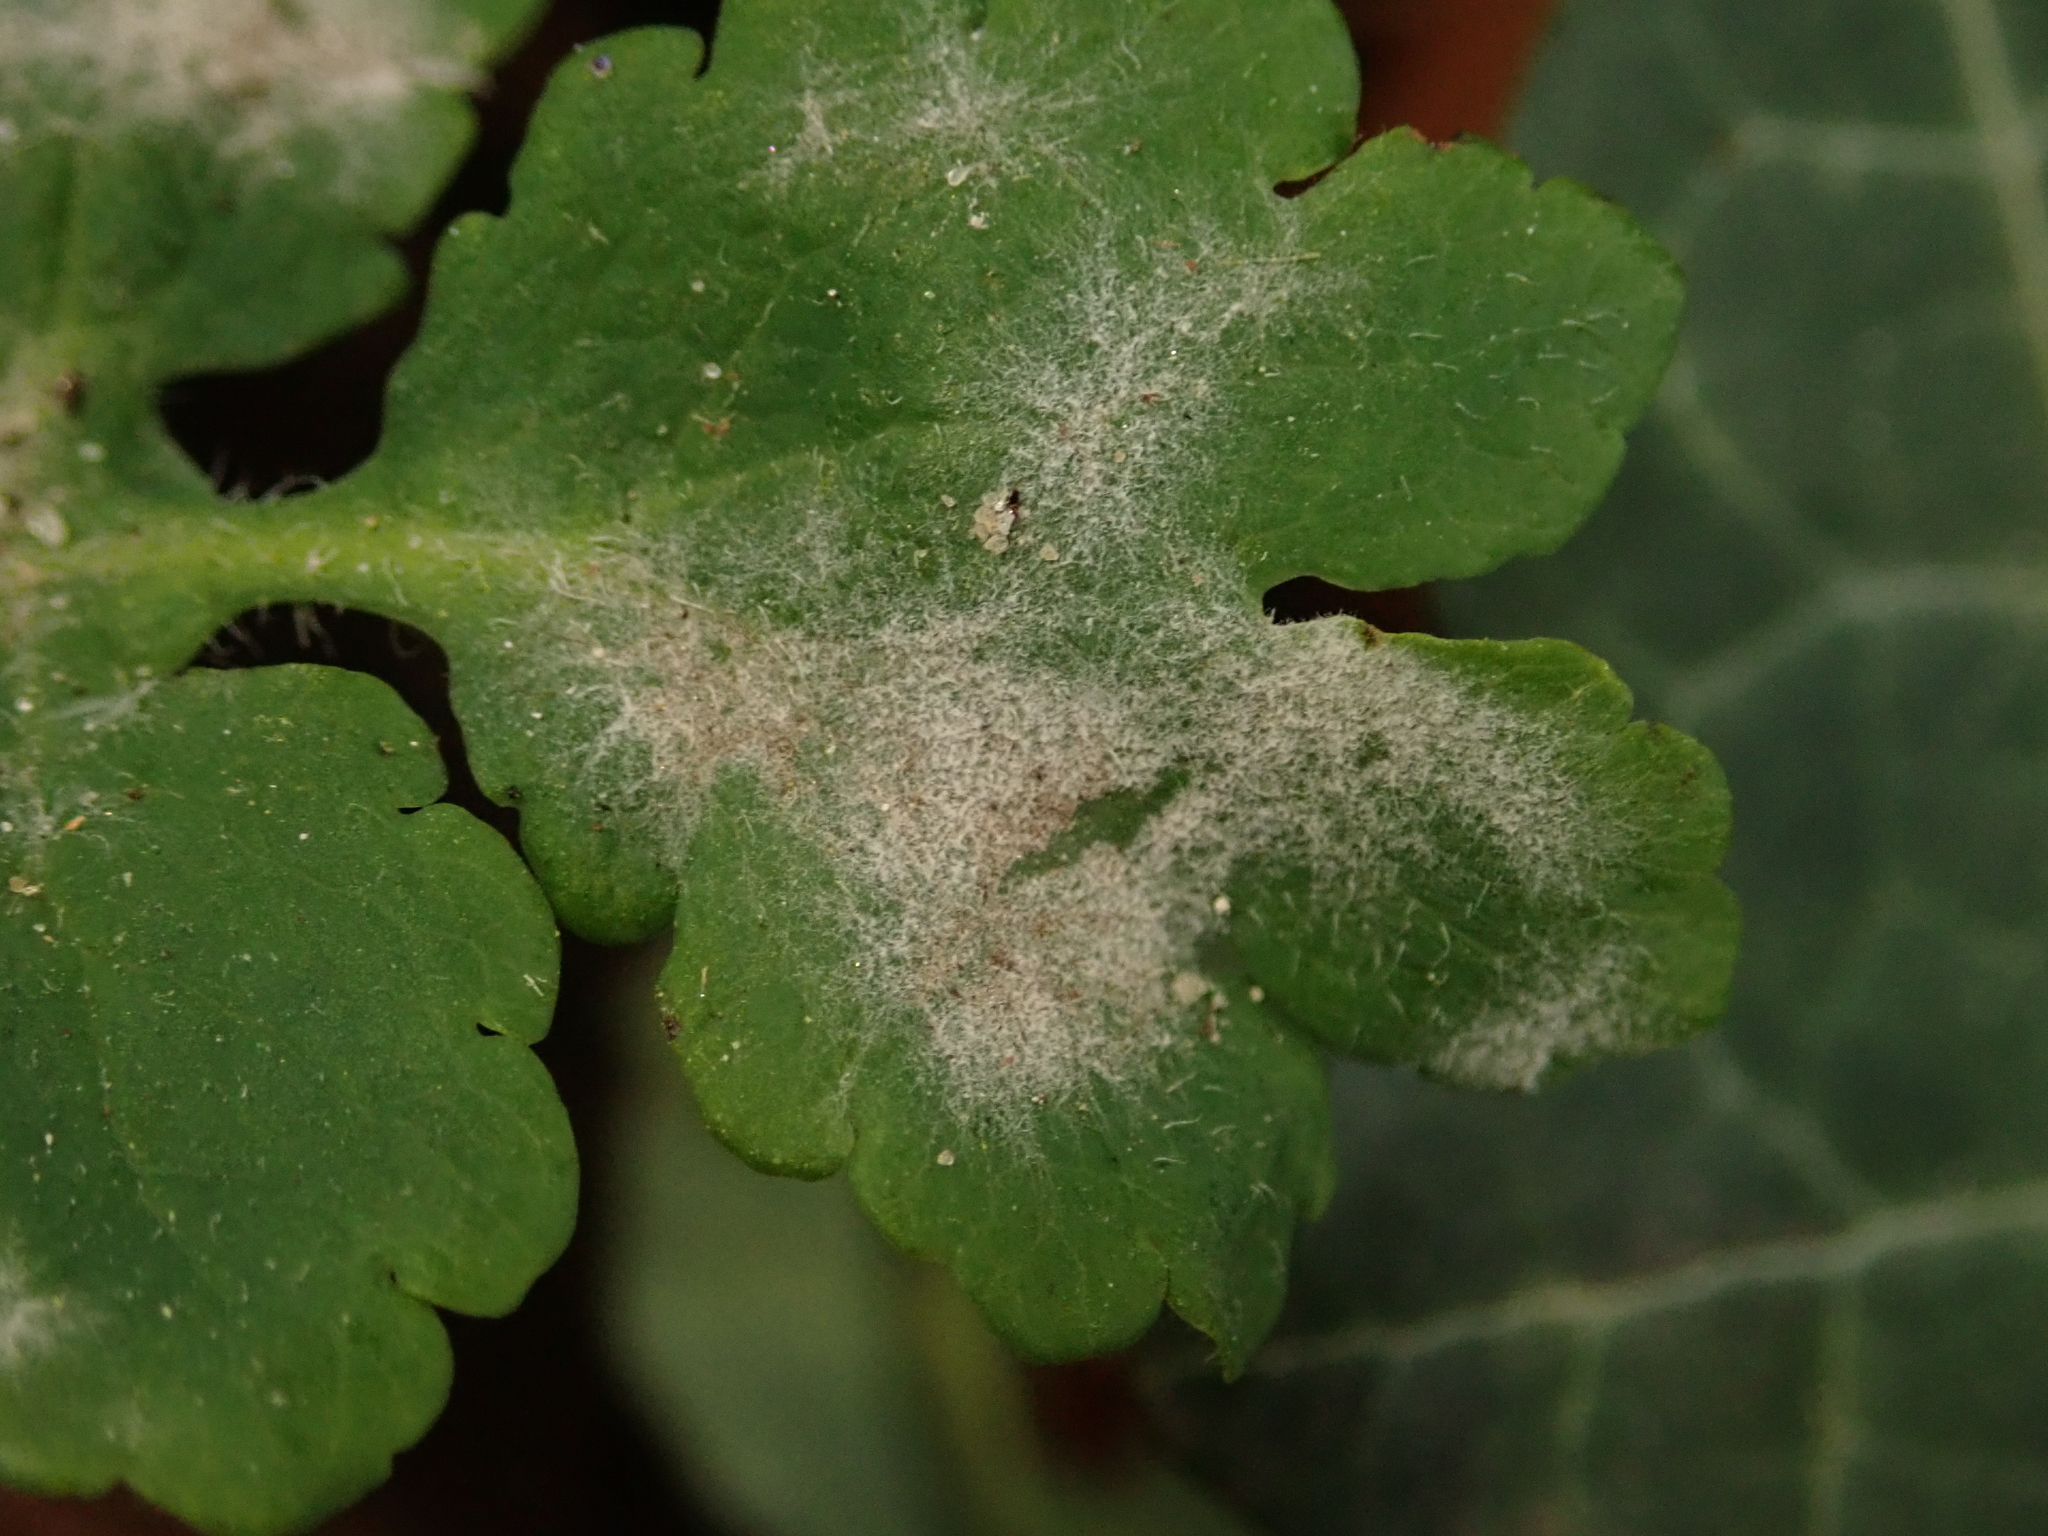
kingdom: Fungi
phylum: Ascomycota
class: Leotiomycetes
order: Helotiales
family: Erysiphaceae
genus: Erysiphe
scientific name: Erysiphe macleayae
